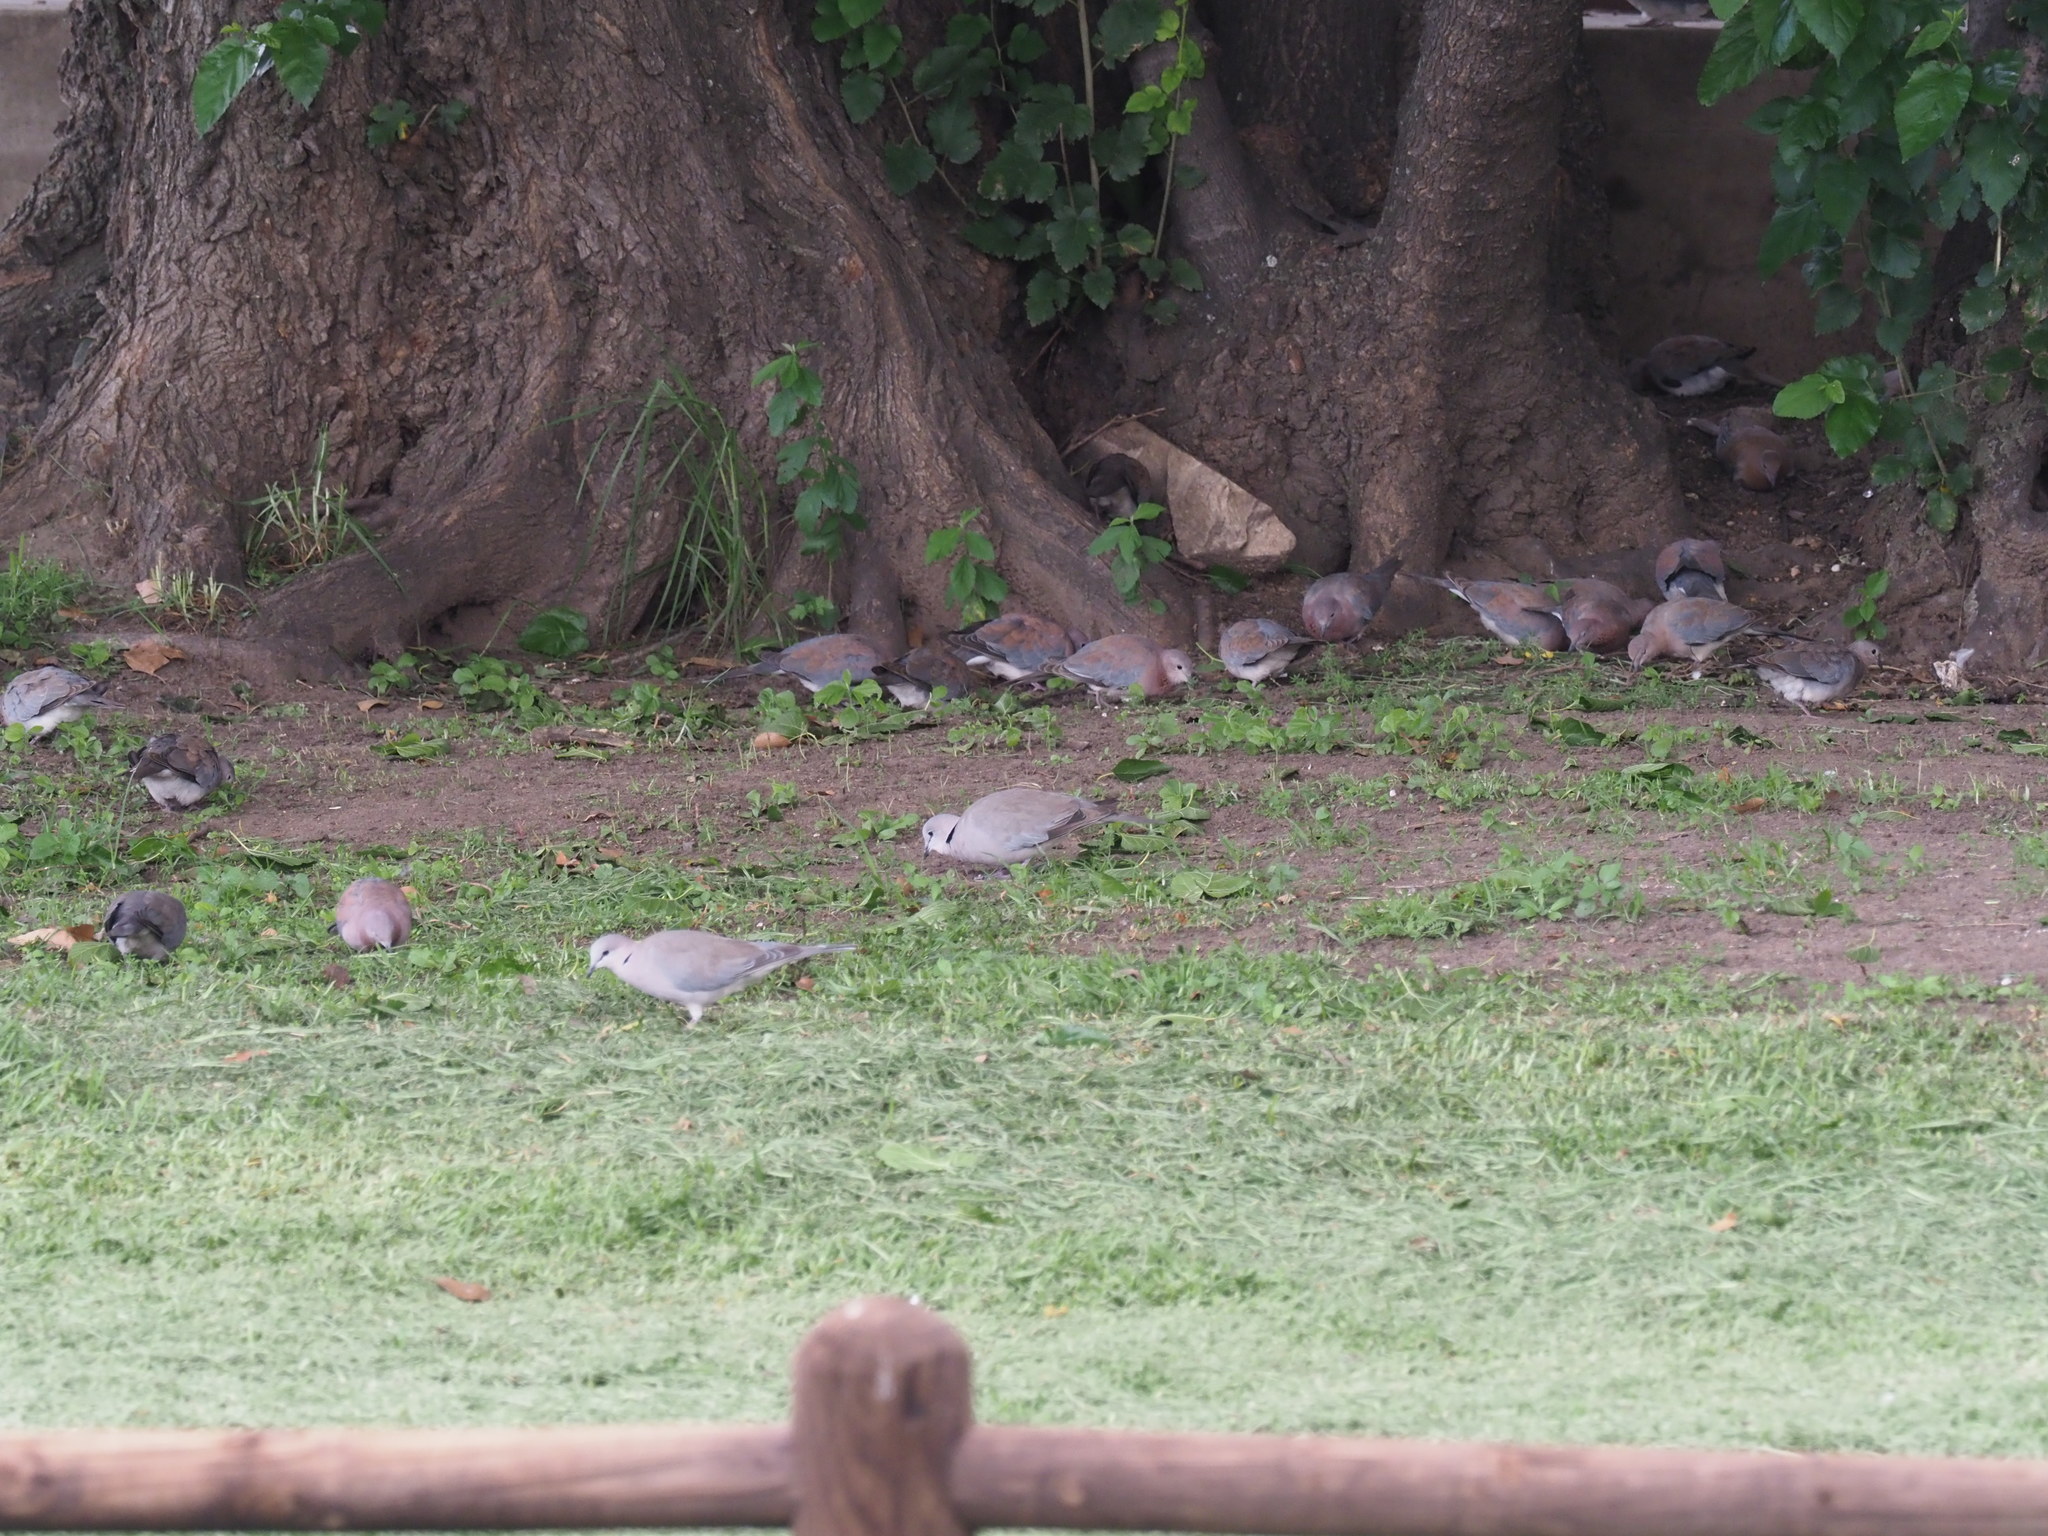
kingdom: Animalia
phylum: Chordata
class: Aves
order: Columbiformes
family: Columbidae
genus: Streptopelia
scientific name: Streptopelia capicola
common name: Ring-necked dove
